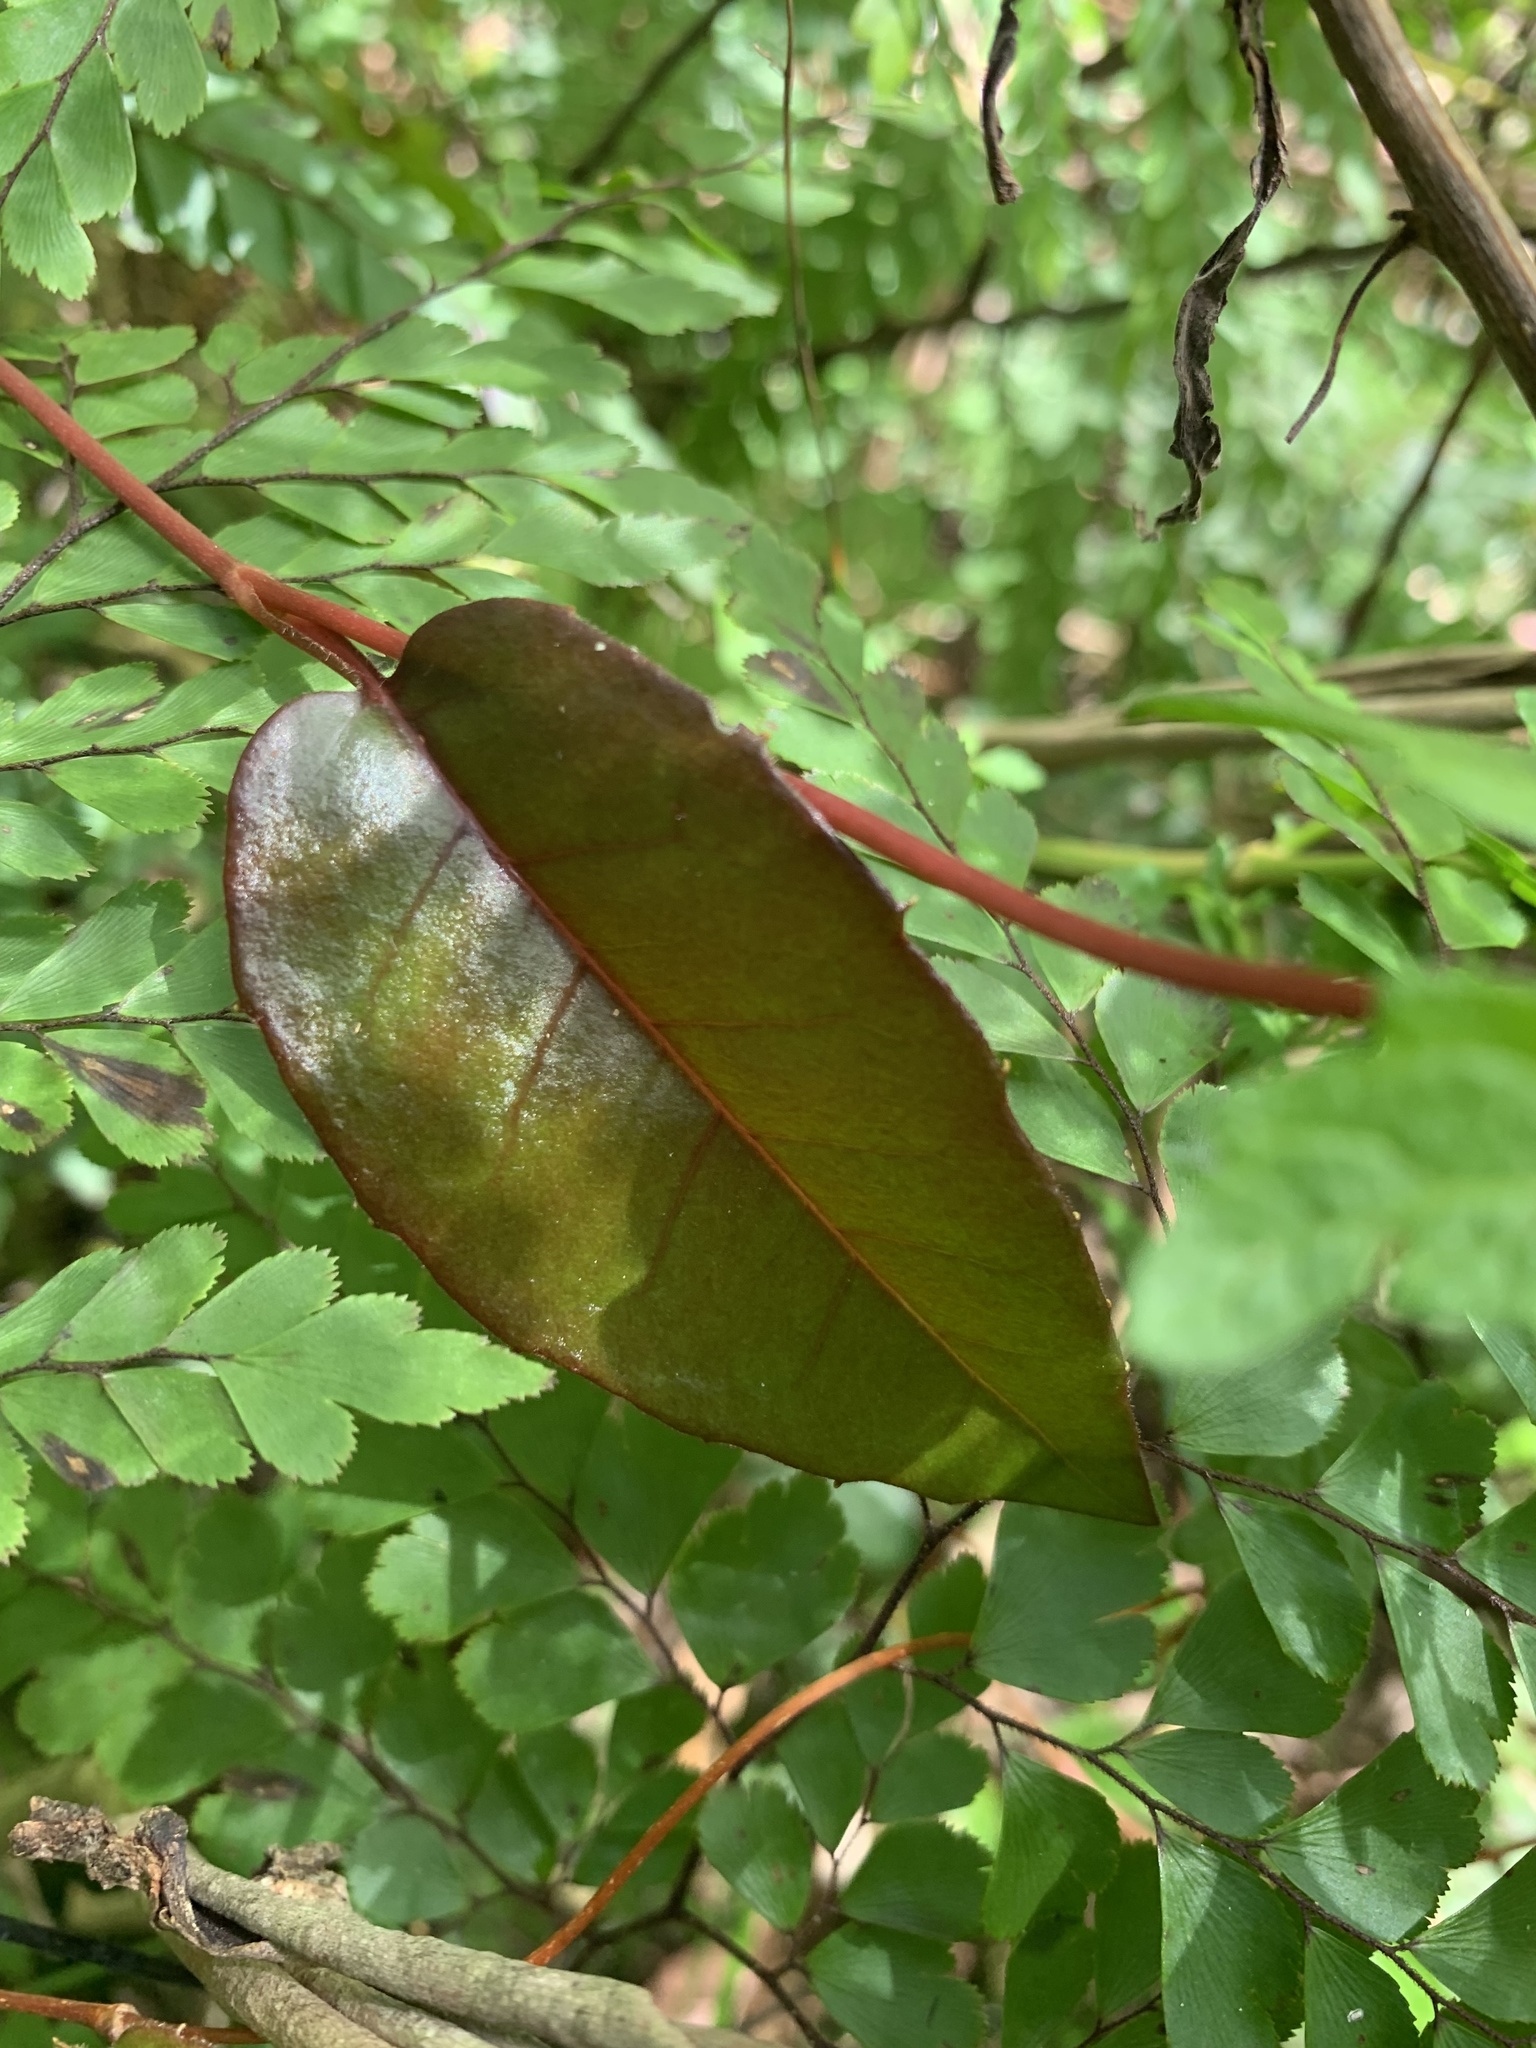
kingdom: Plantae
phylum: Tracheophyta
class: Magnoliopsida
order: Dilleniales
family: Dilleniaceae
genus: Hibbertia
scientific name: Hibbertia dentata
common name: Trailing guinea-flower
